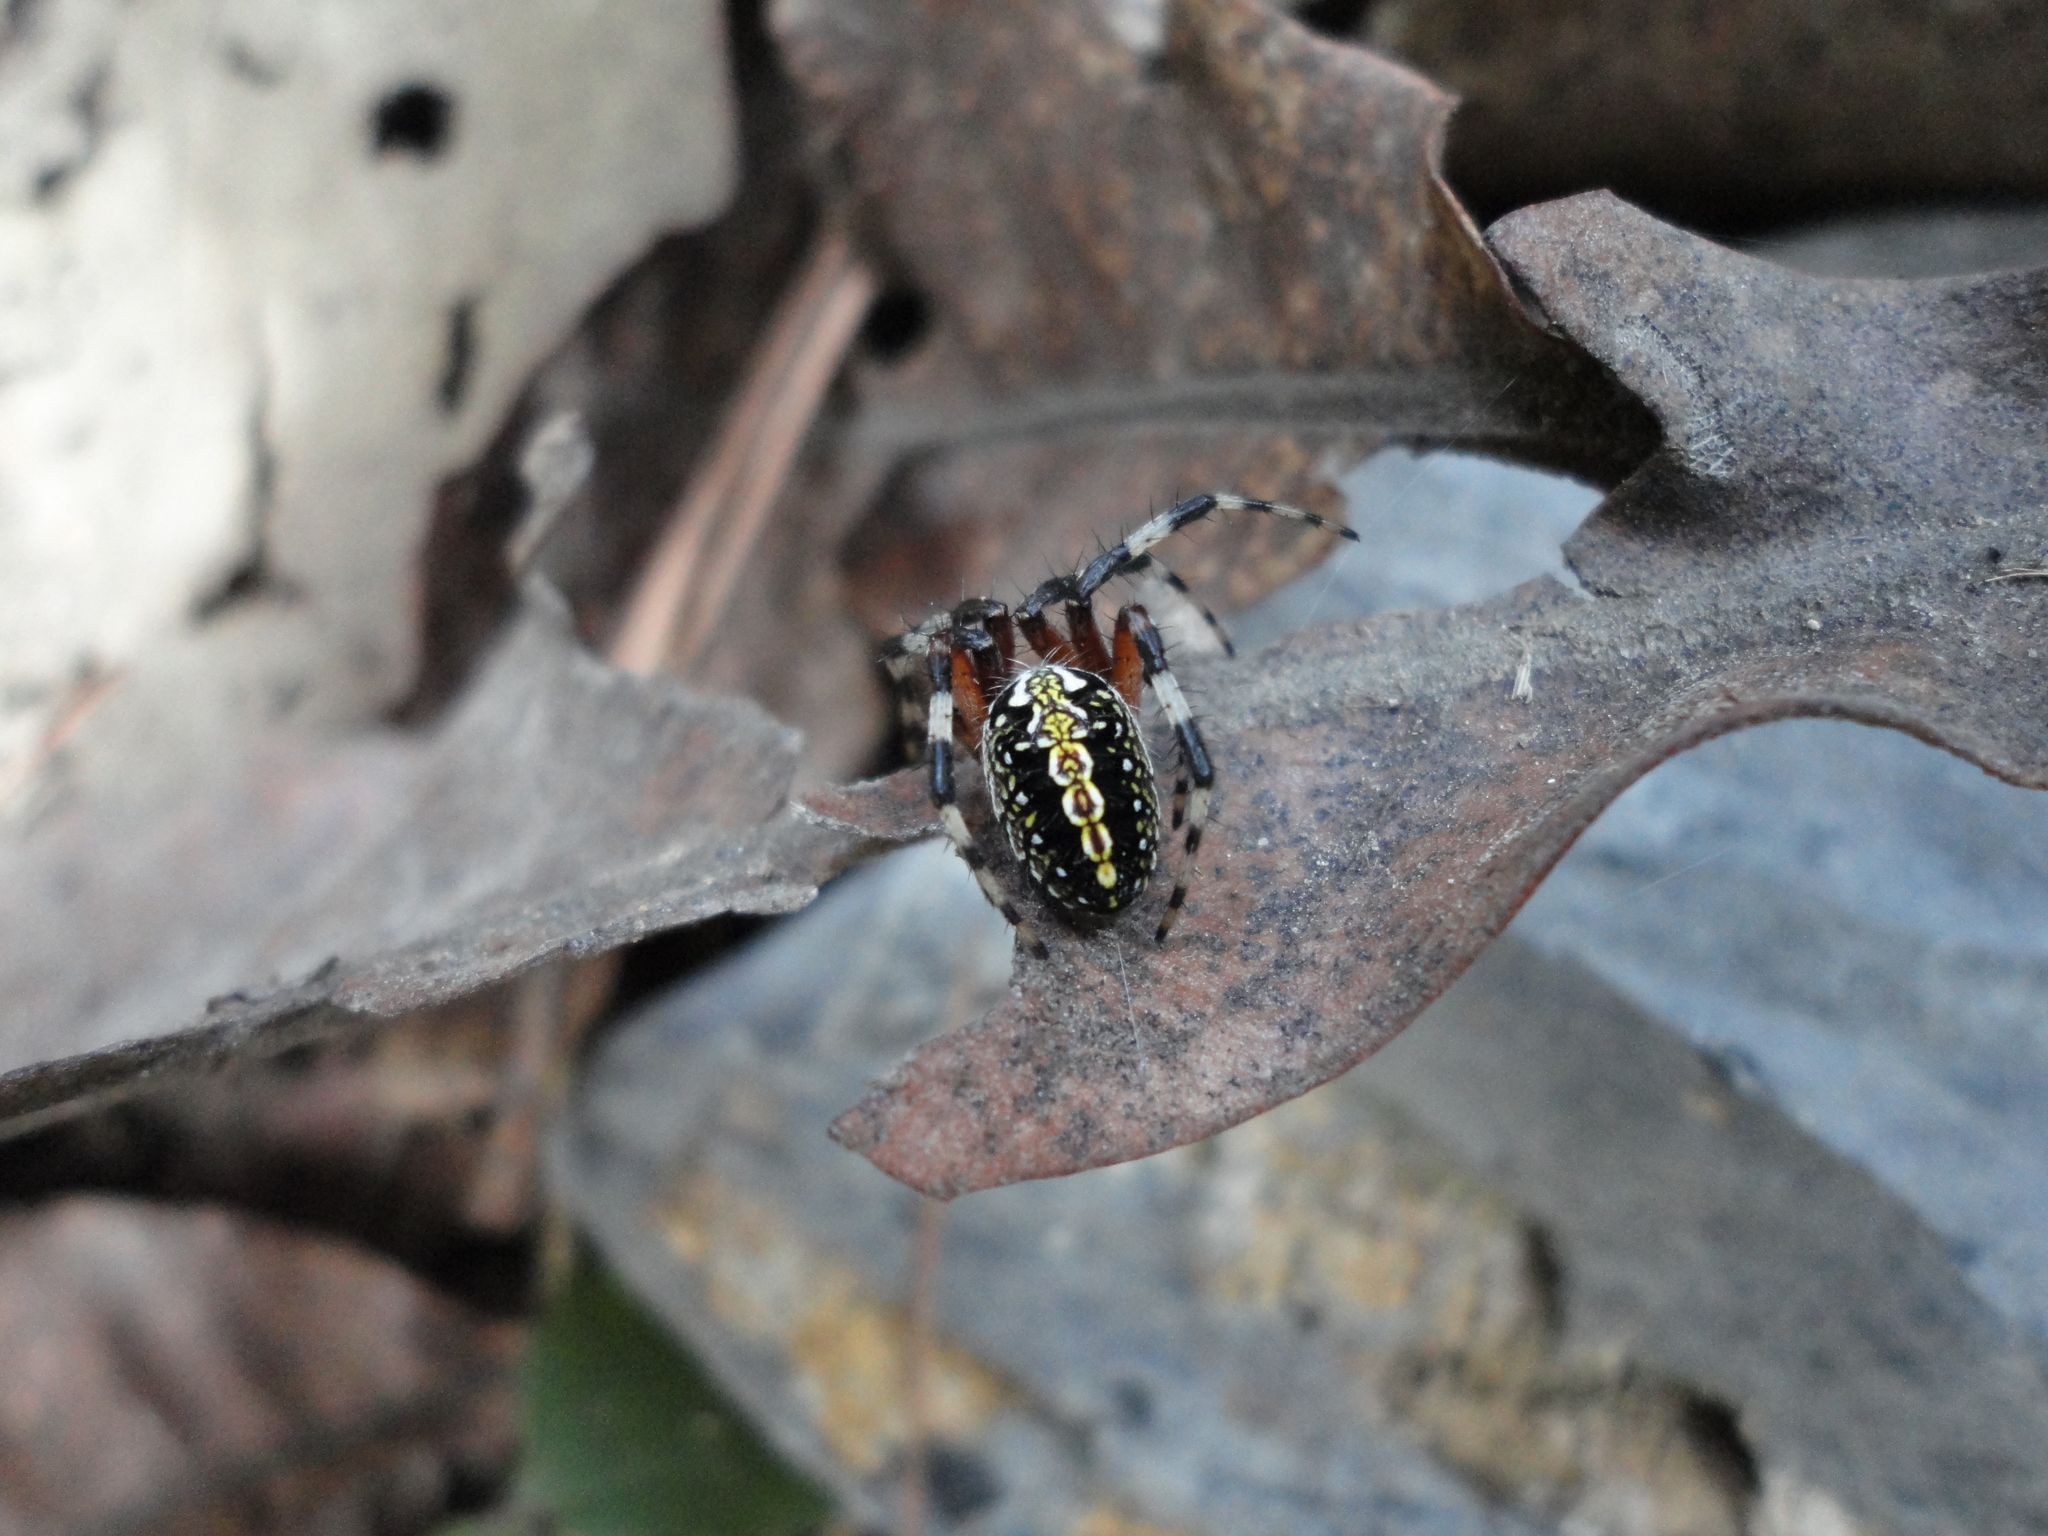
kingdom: Animalia
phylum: Arthropoda
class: Arachnida
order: Araneae
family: Araneidae
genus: Neoscona
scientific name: Neoscona oaxacensis
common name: Orb weavers
